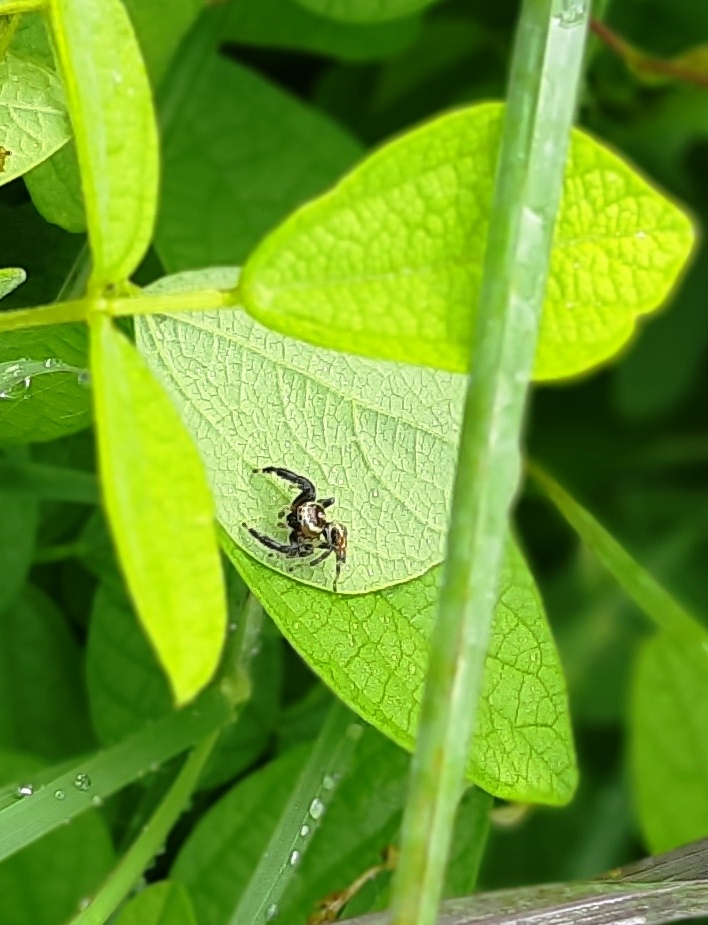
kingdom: Animalia
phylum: Arthropoda
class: Arachnida
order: Araneae
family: Salticidae
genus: Thyene
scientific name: Thyene imperialis
